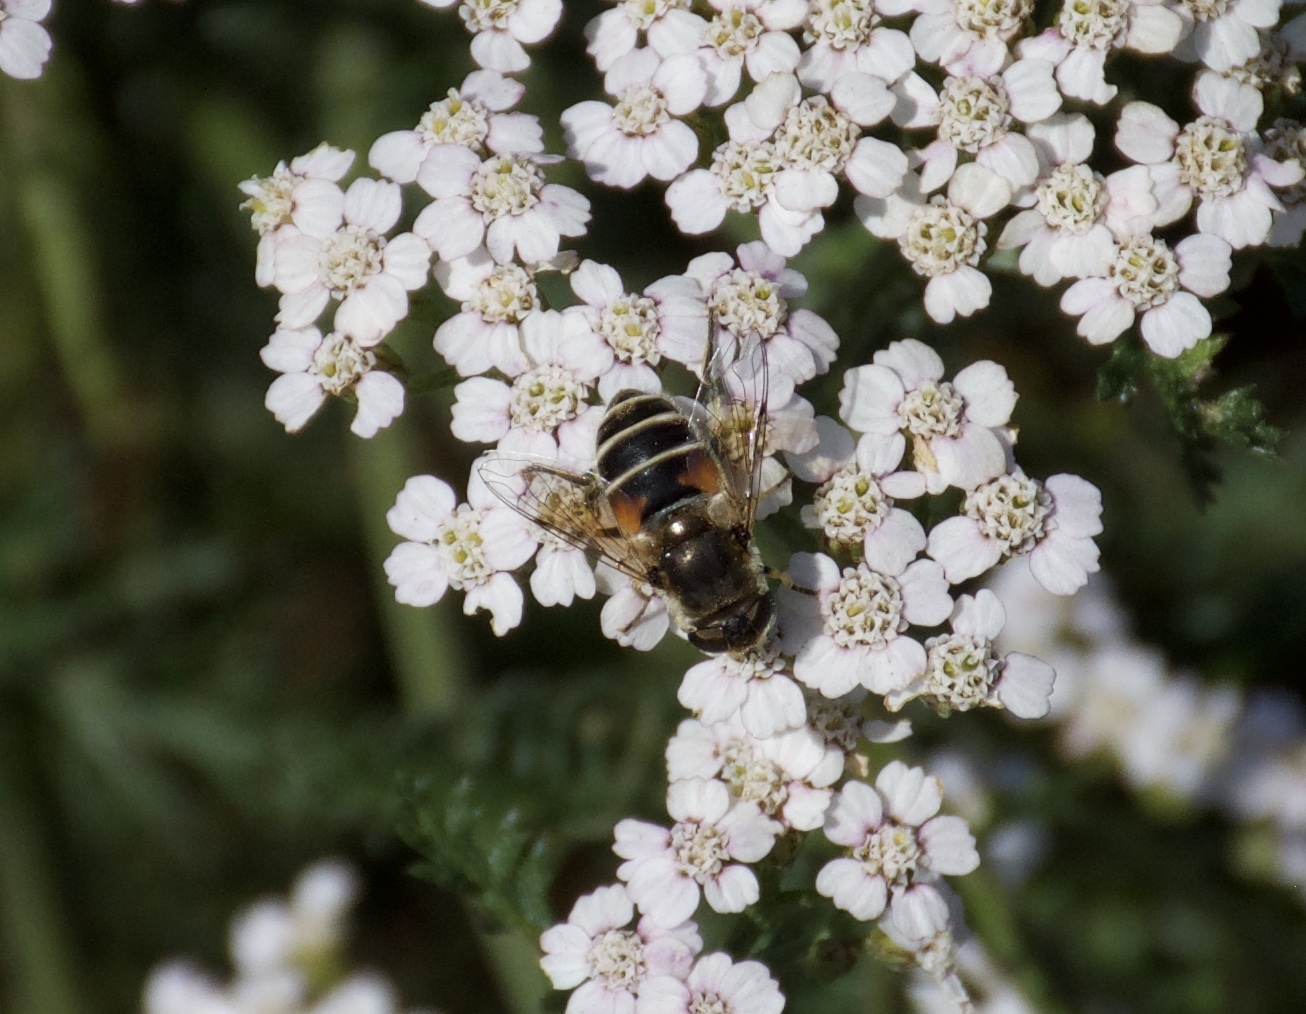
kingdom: Animalia
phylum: Arthropoda
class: Insecta
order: Diptera
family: Syrphidae
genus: Eristalis
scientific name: Eristalis arbustorum
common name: Hover fly
